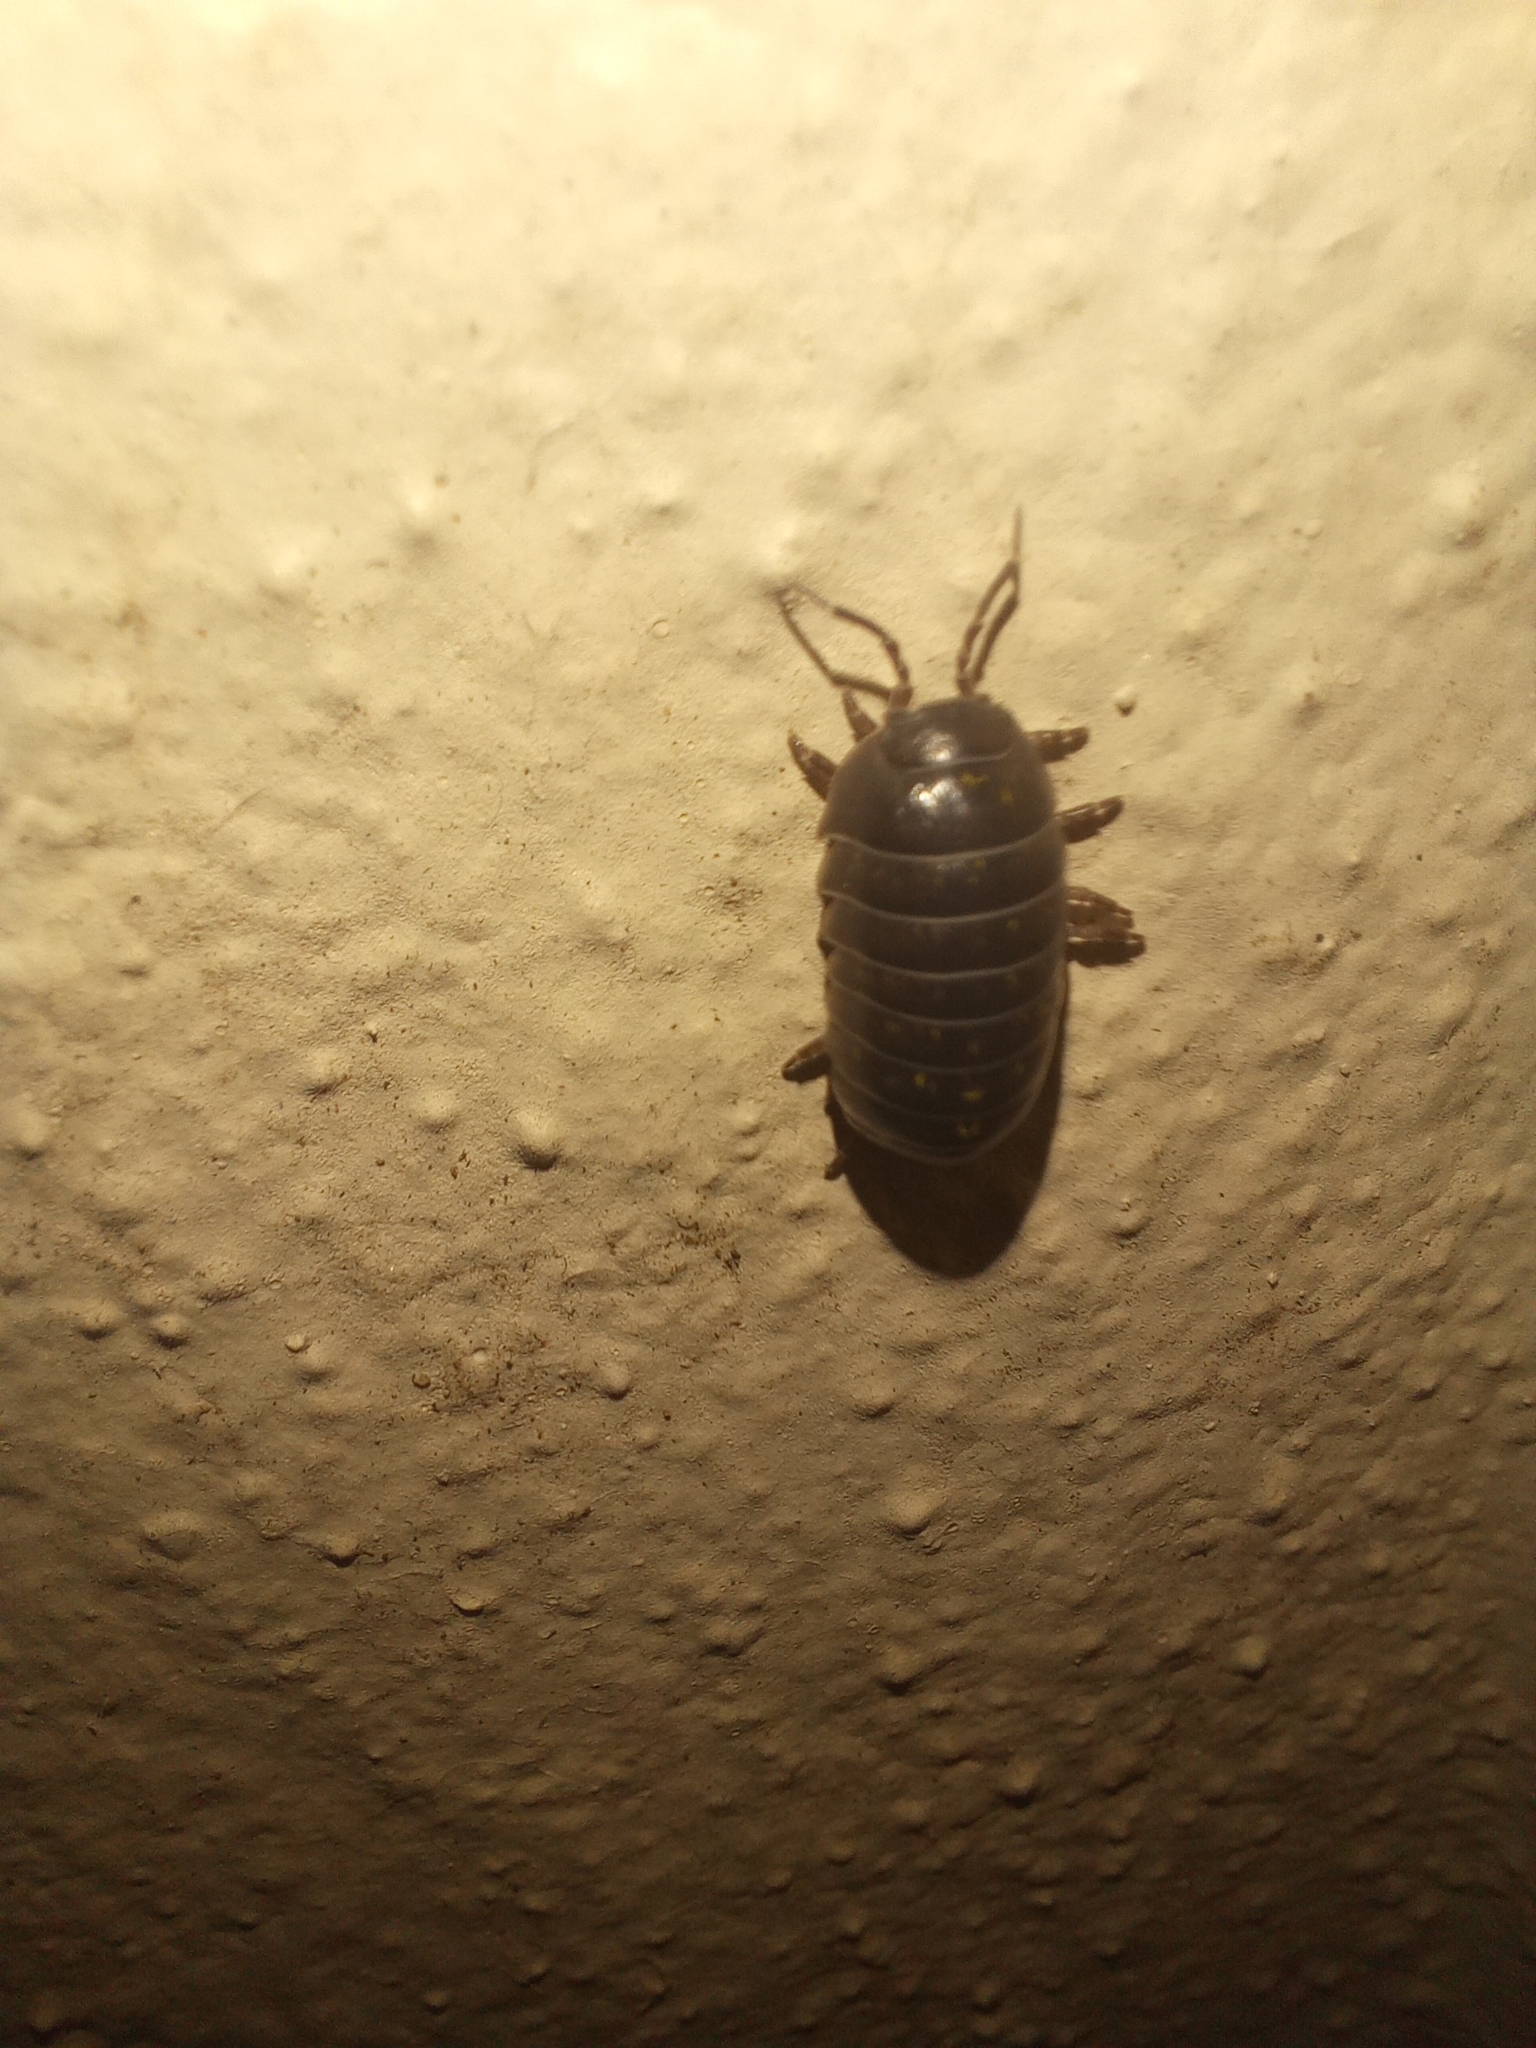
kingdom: Animalia
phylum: Arthropoda
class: Malacostraca
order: Isopoda
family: Armadillidiidae
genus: Armadillidium
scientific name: Armadillidium vulgare
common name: Common pill woodlouse
